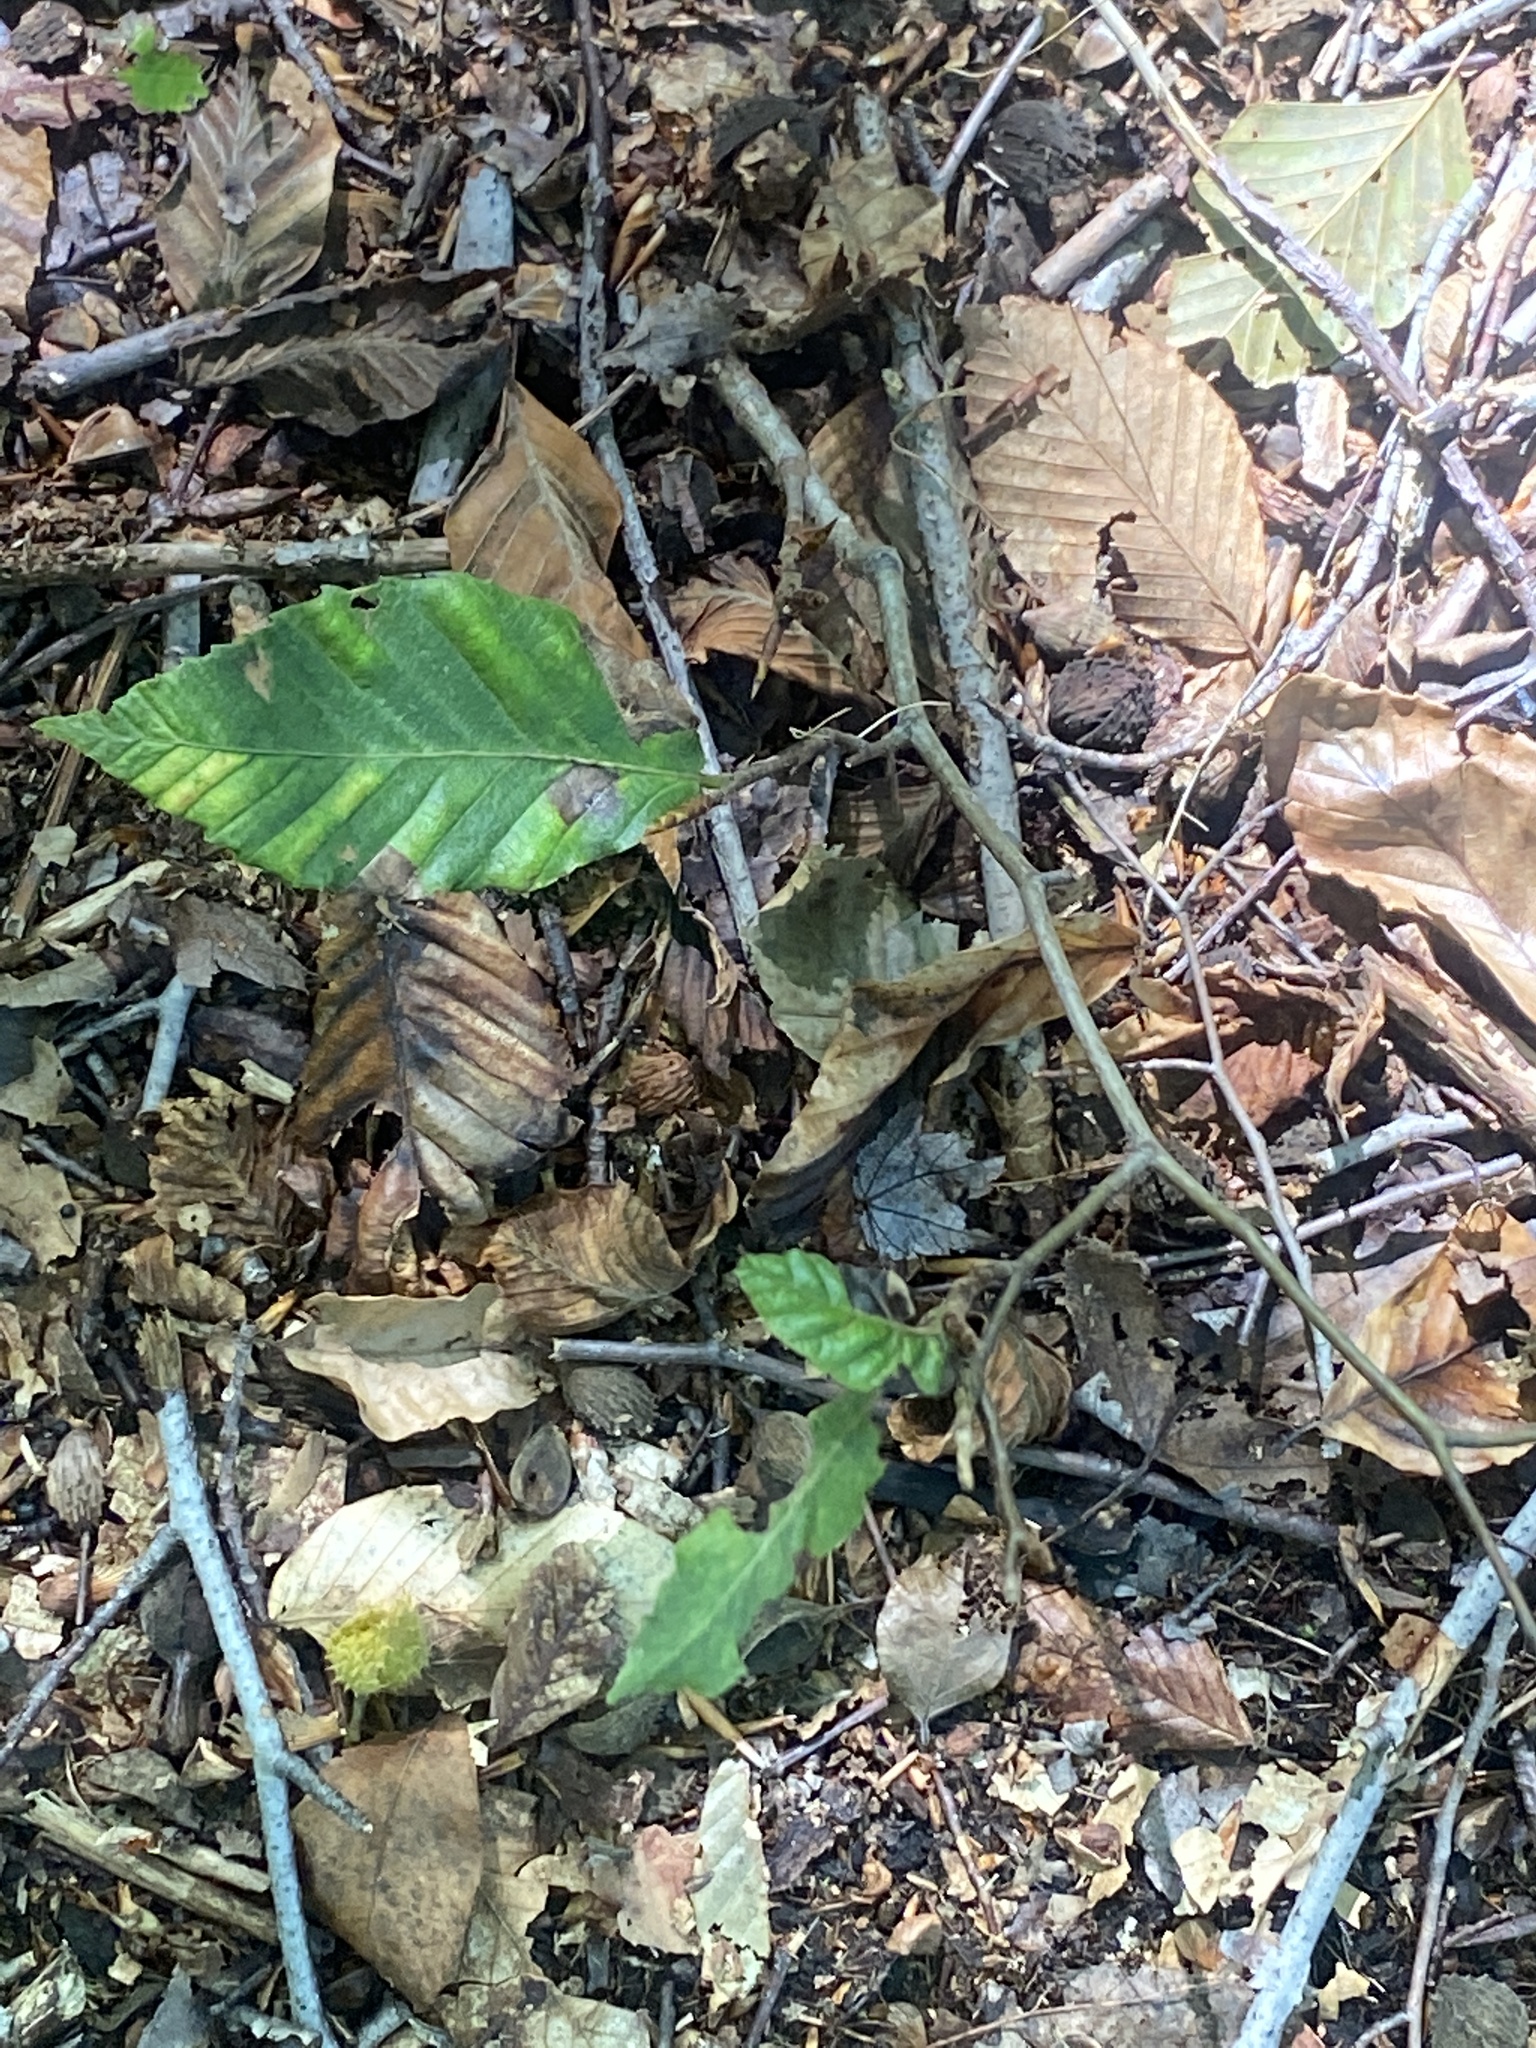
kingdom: Animalia
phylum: Nematoda
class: Chromadorea
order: Rhabditida
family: Anguinidae
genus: Litylenchus
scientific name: Litylenchus crenatae
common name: Beech leaf disease
